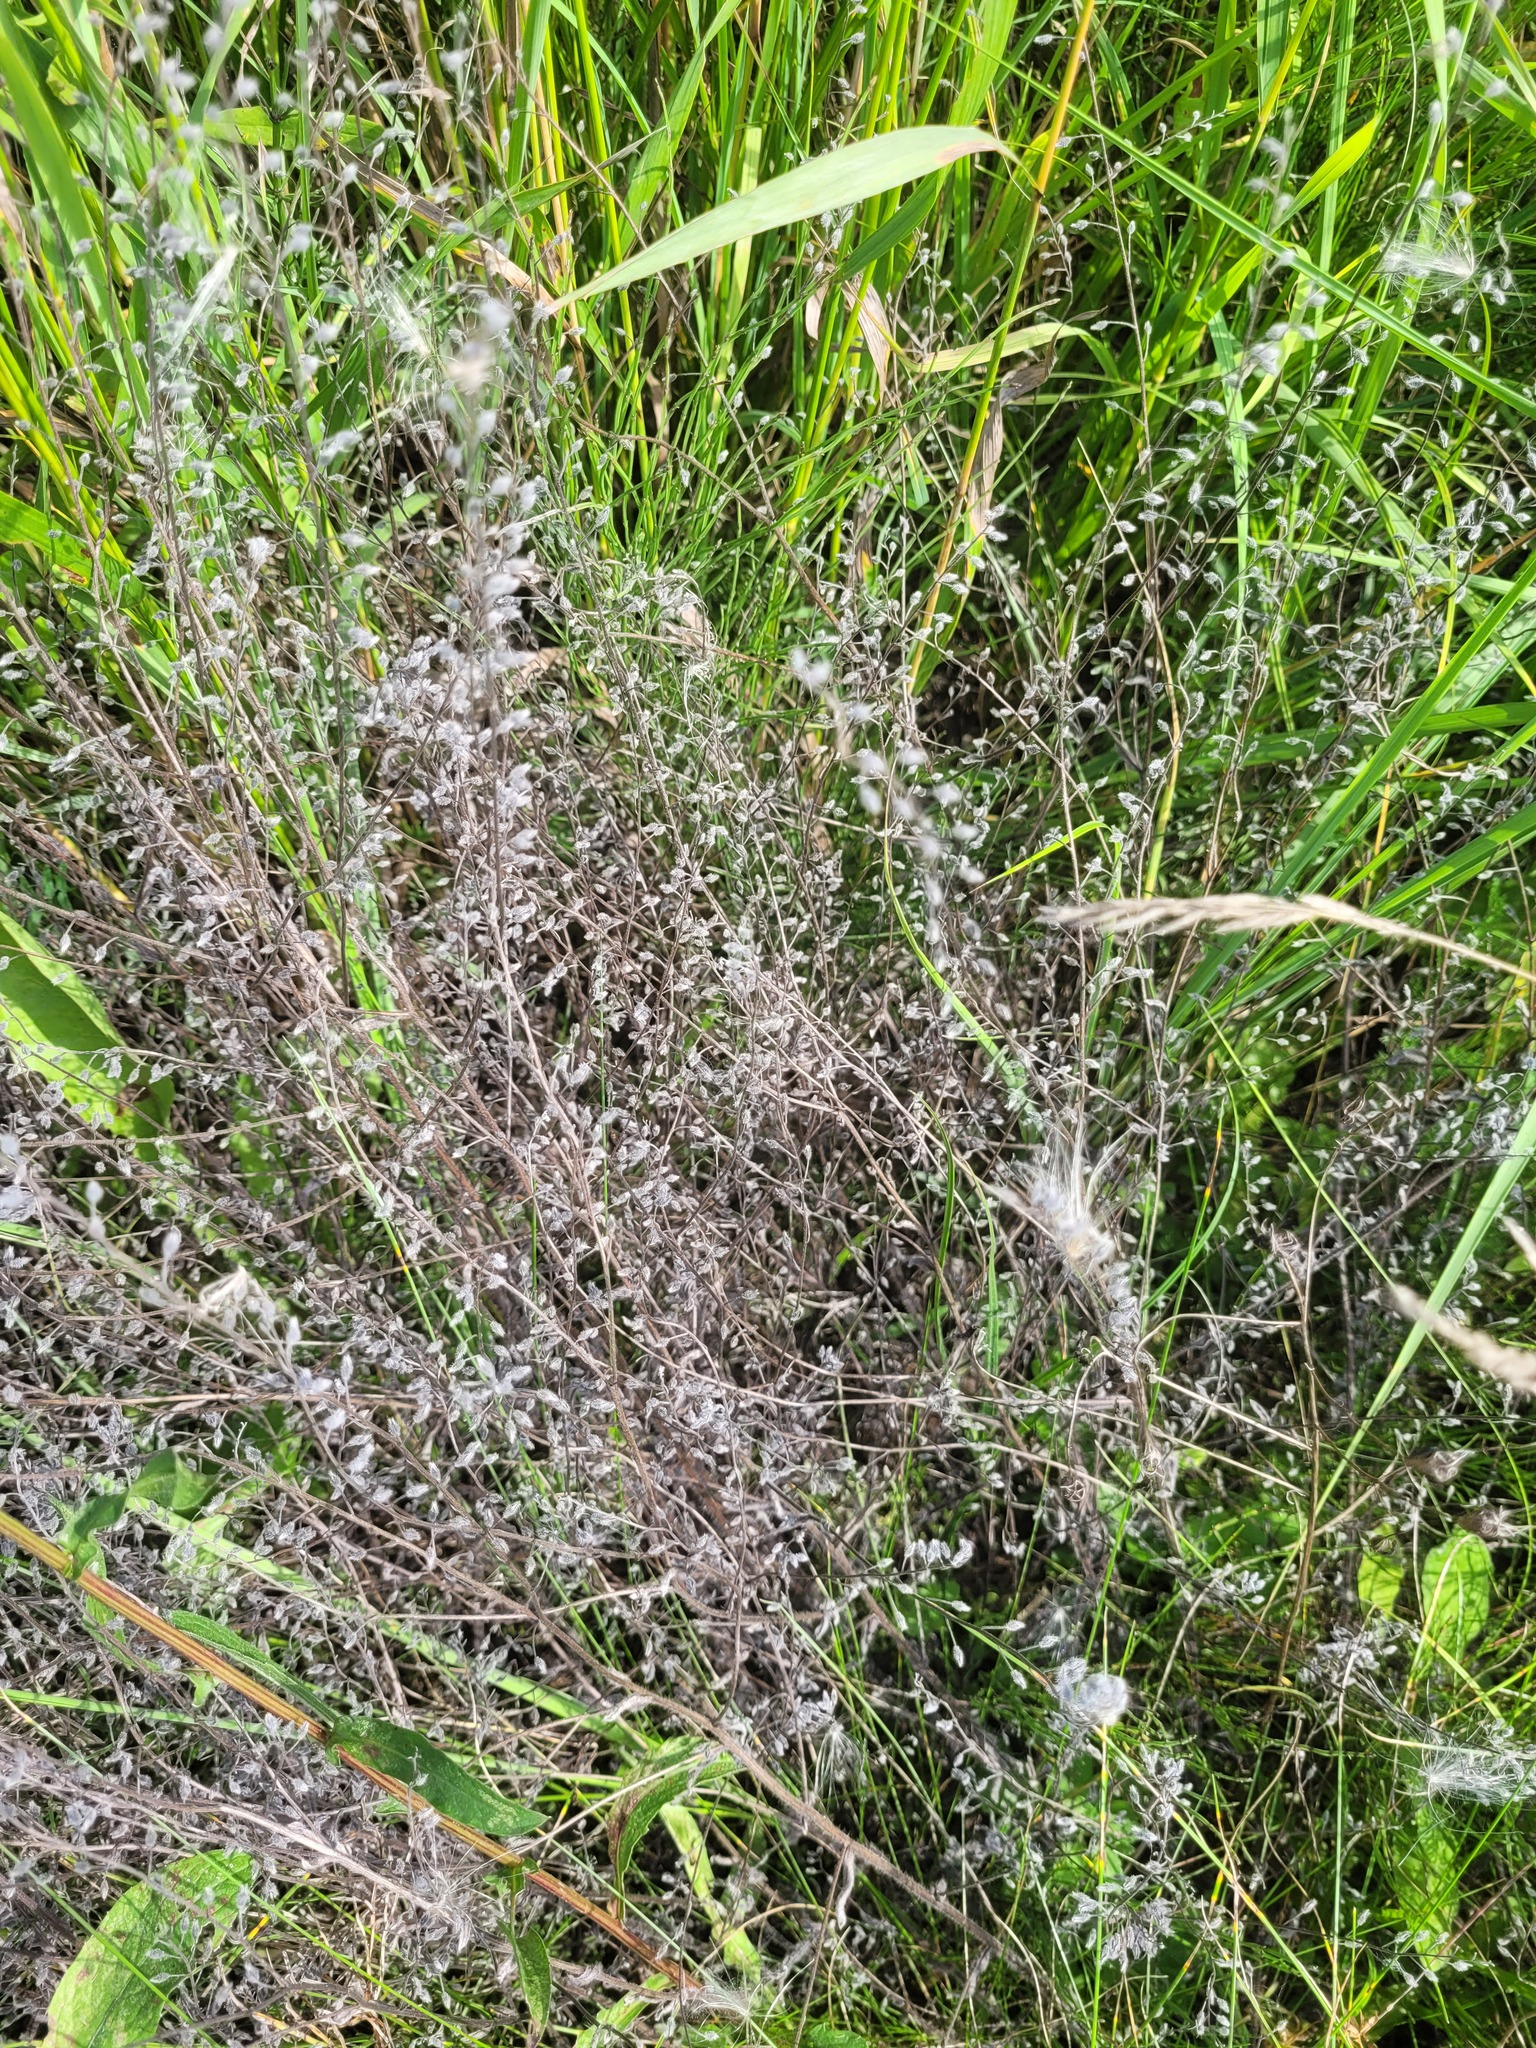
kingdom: Plantae
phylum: Tracheophyta
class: Magnoliopsida
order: Boraginales
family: Boraginaceae
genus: Myosotis
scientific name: Myosotis arvensis
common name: Field forget-me-not
